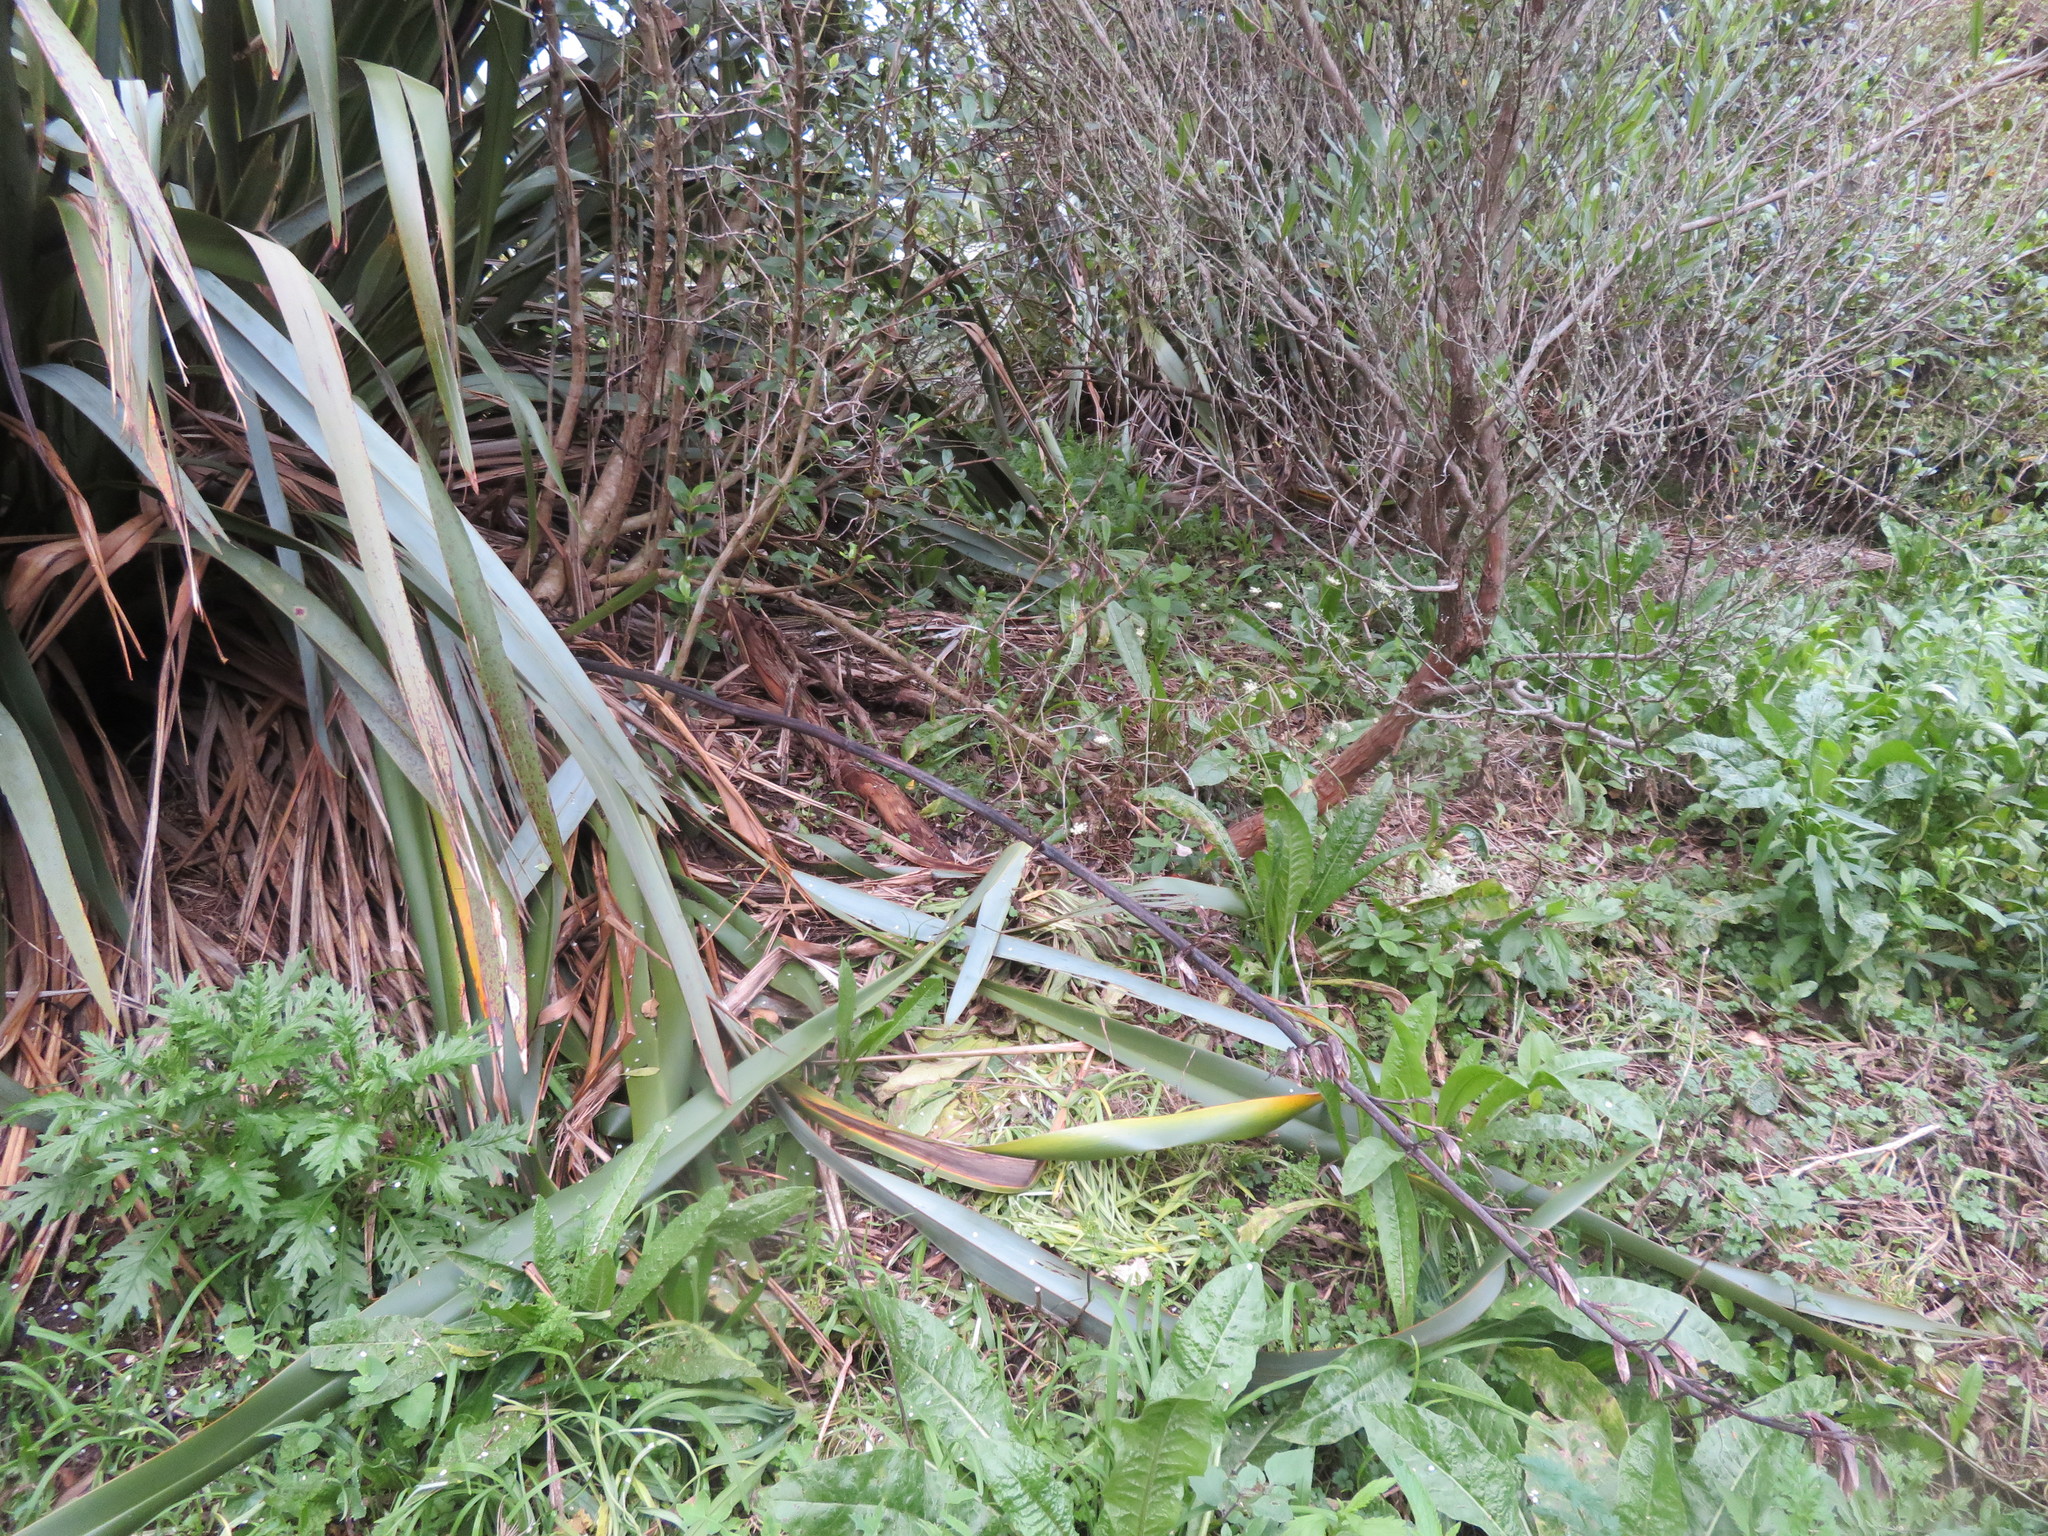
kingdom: Plantae
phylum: Tracheophyta
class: Magnoliopsida
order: Sapindales
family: Sapindaceae
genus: Dodonaea
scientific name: Dodonaea viscosa
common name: Hopbush
